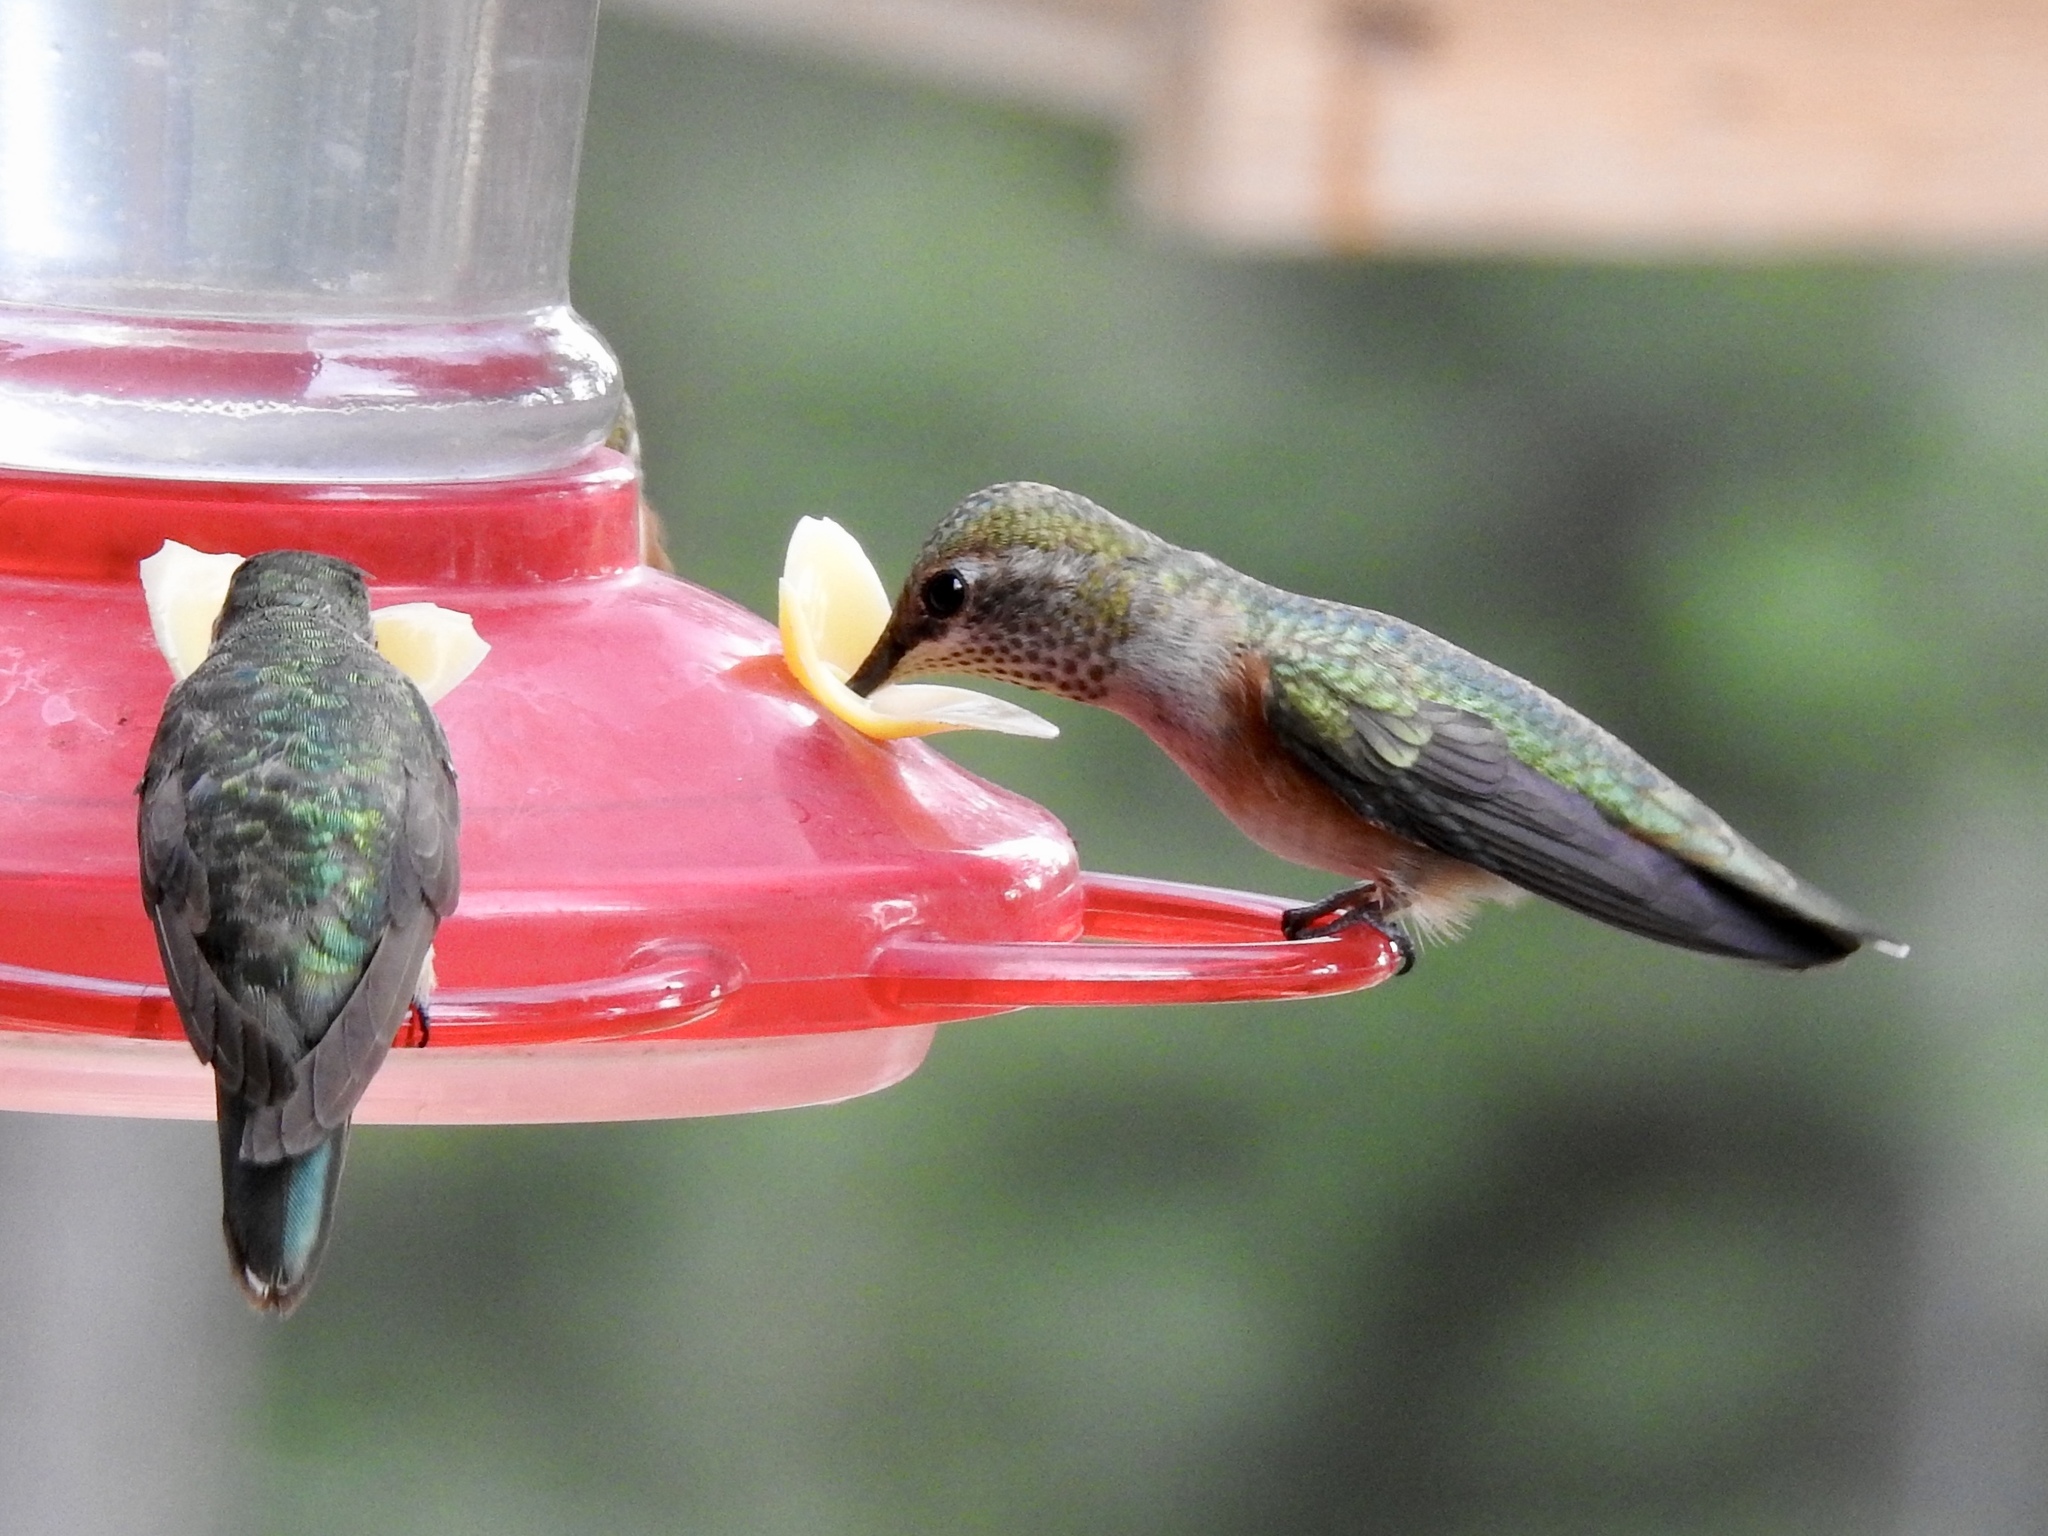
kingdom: Animalia
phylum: Chordata
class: Aves
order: Apodiformes
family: Trochilidae
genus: Selasphorus
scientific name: Selasphorus platycercus
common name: Broad-tailed hummingbird
